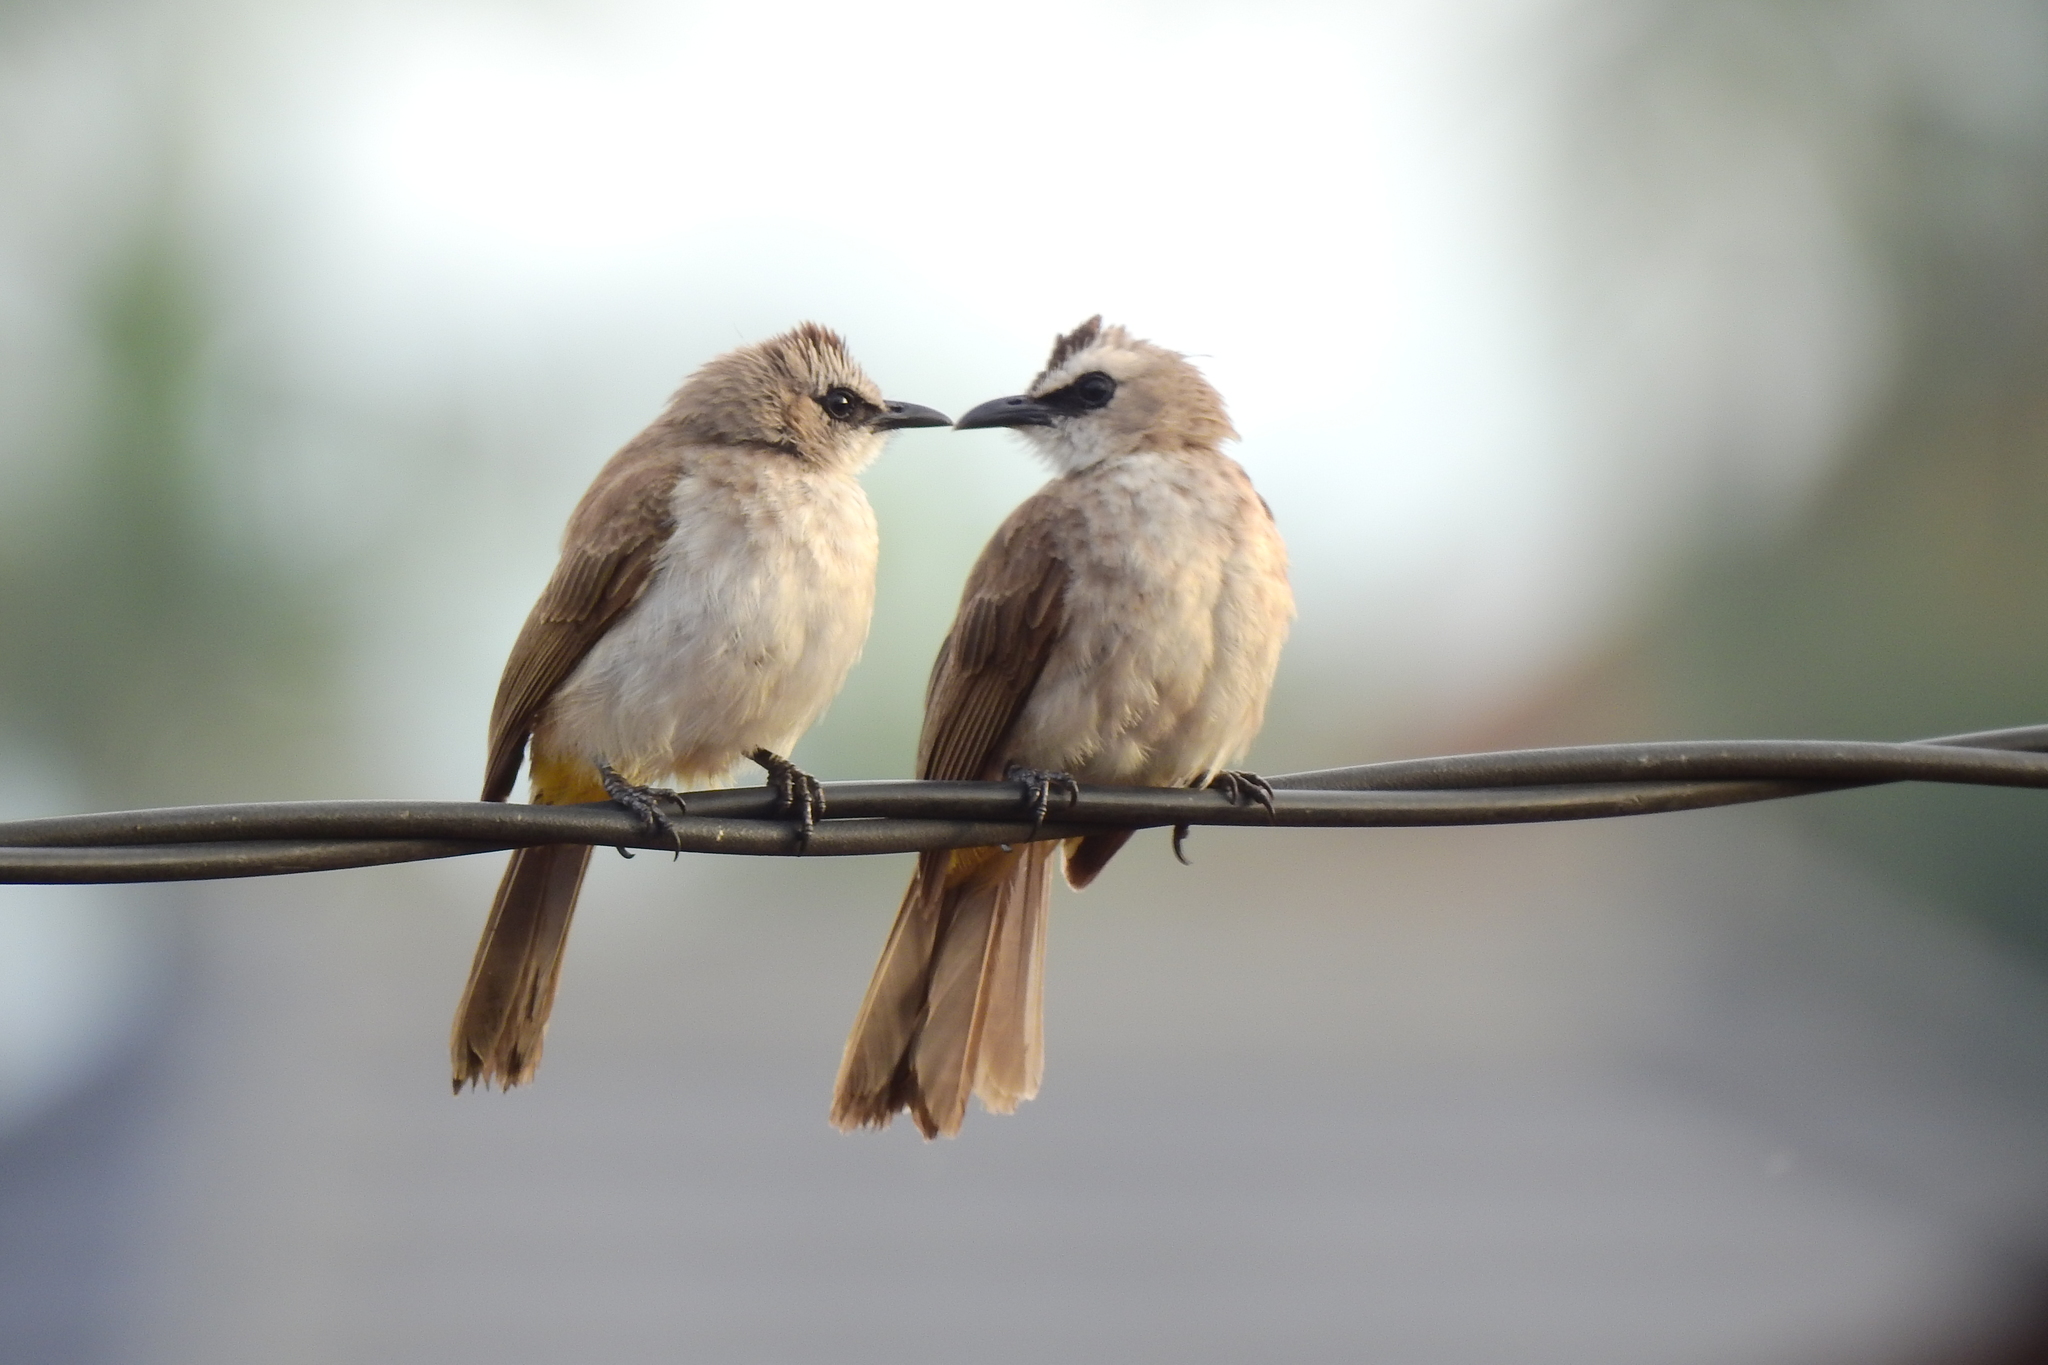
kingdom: Animalia
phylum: Chordata
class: Aves
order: Passeriformes
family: Pycnonotidae
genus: Pycnonotus
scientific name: Pycnonotus goiavier
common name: Yellow-vented bulbul
